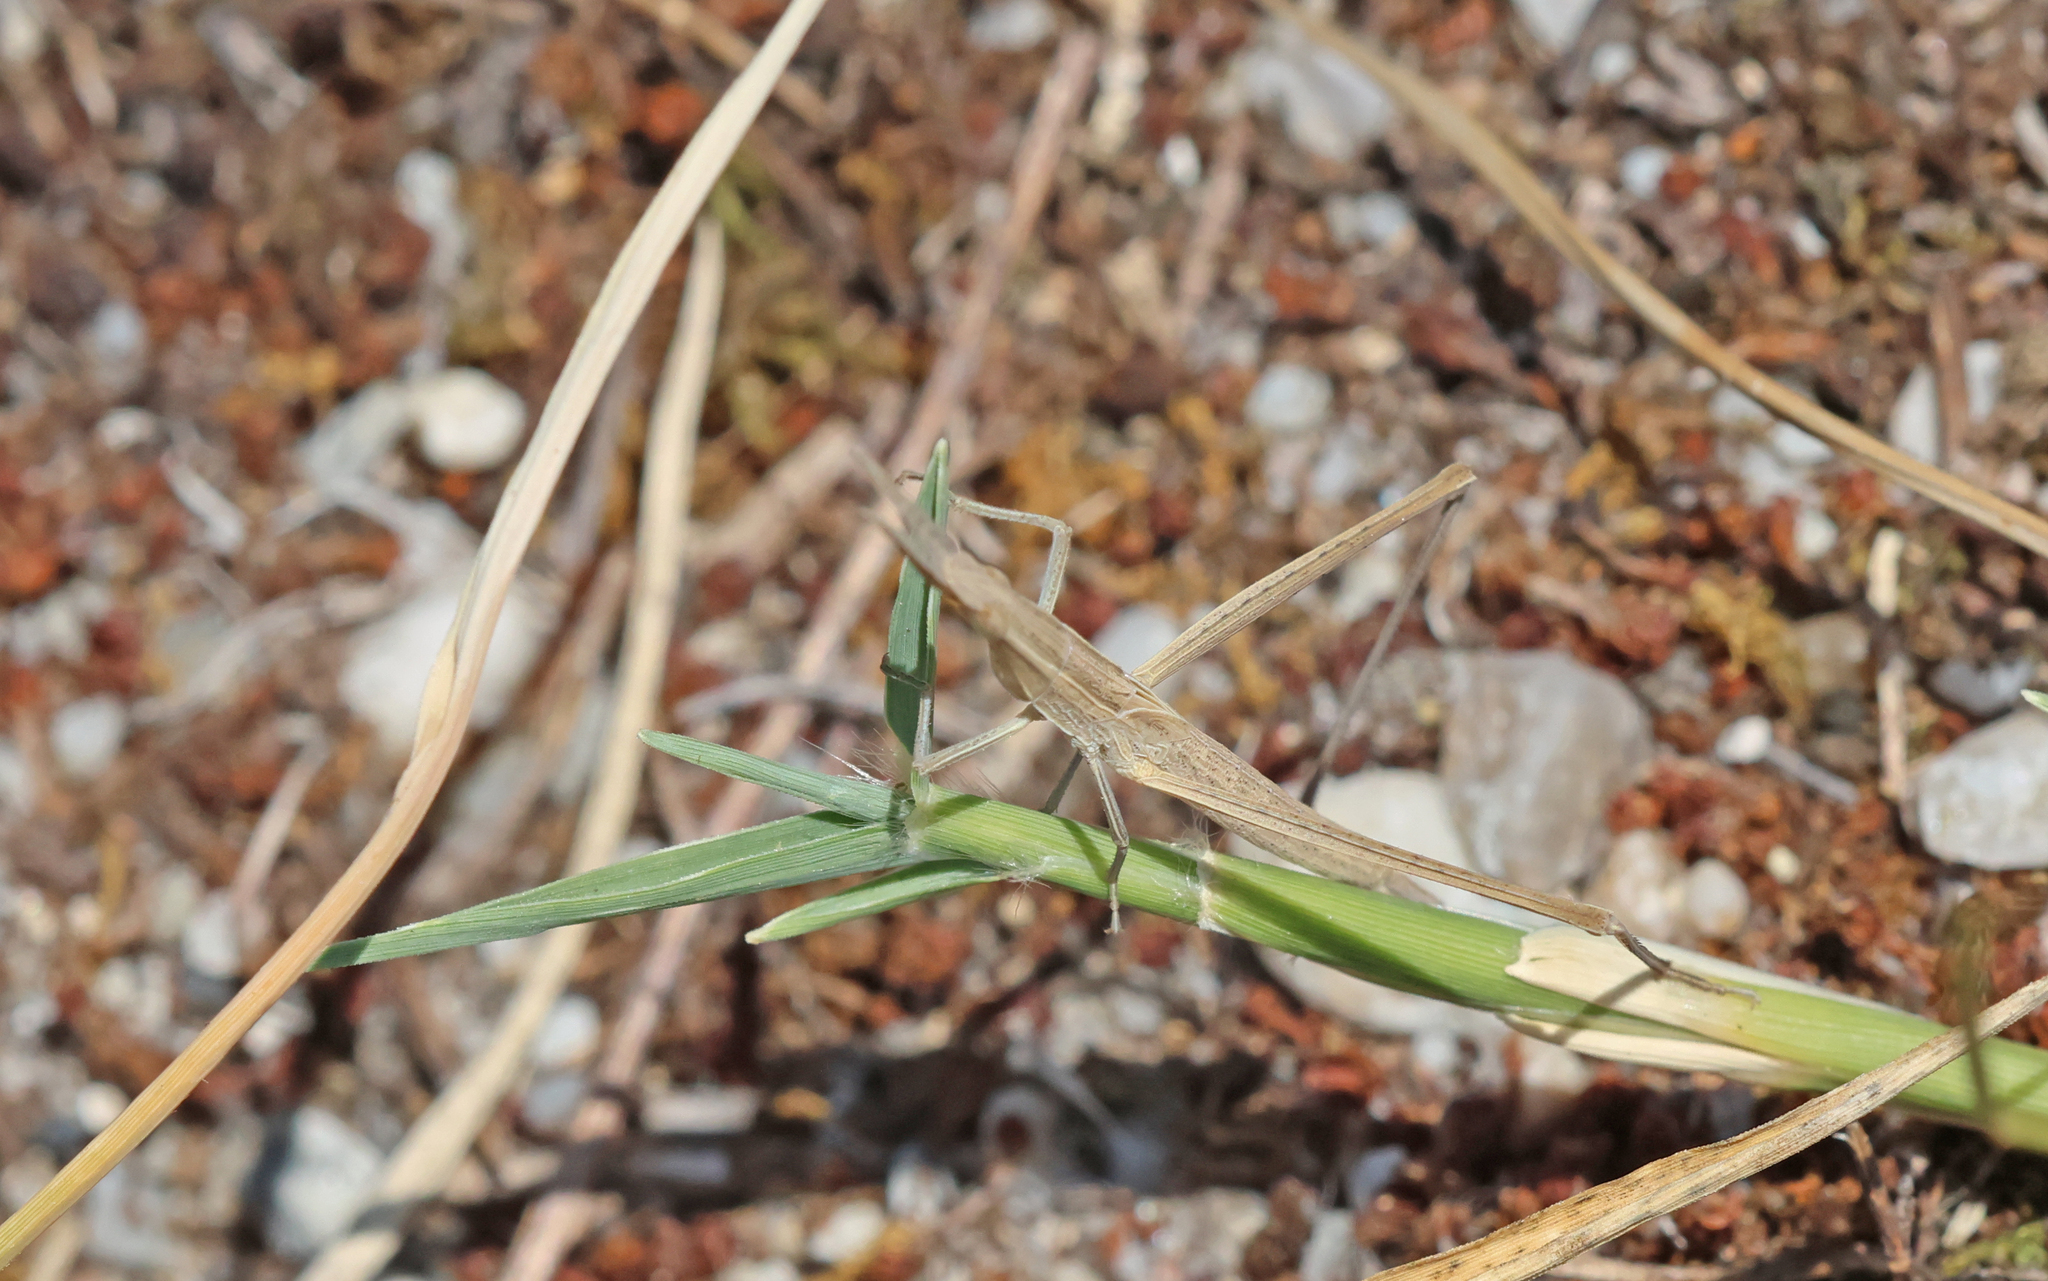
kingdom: Animalia
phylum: Arthropoda
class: Insecta
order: Orthoptera
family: Acrididae
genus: Acrida
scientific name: Acrida ungarica
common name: Common cone-headed grasshopper
